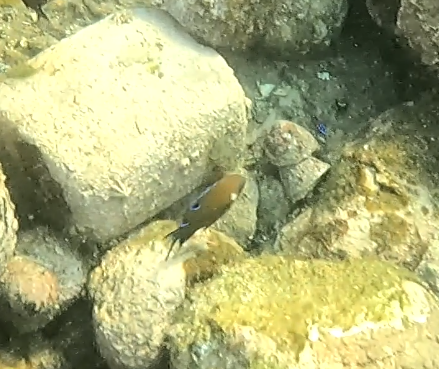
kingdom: Animalia
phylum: Chordata
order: Perciformes
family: Pomacentridae
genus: Parma
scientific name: Parma microlepis
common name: White-ear
